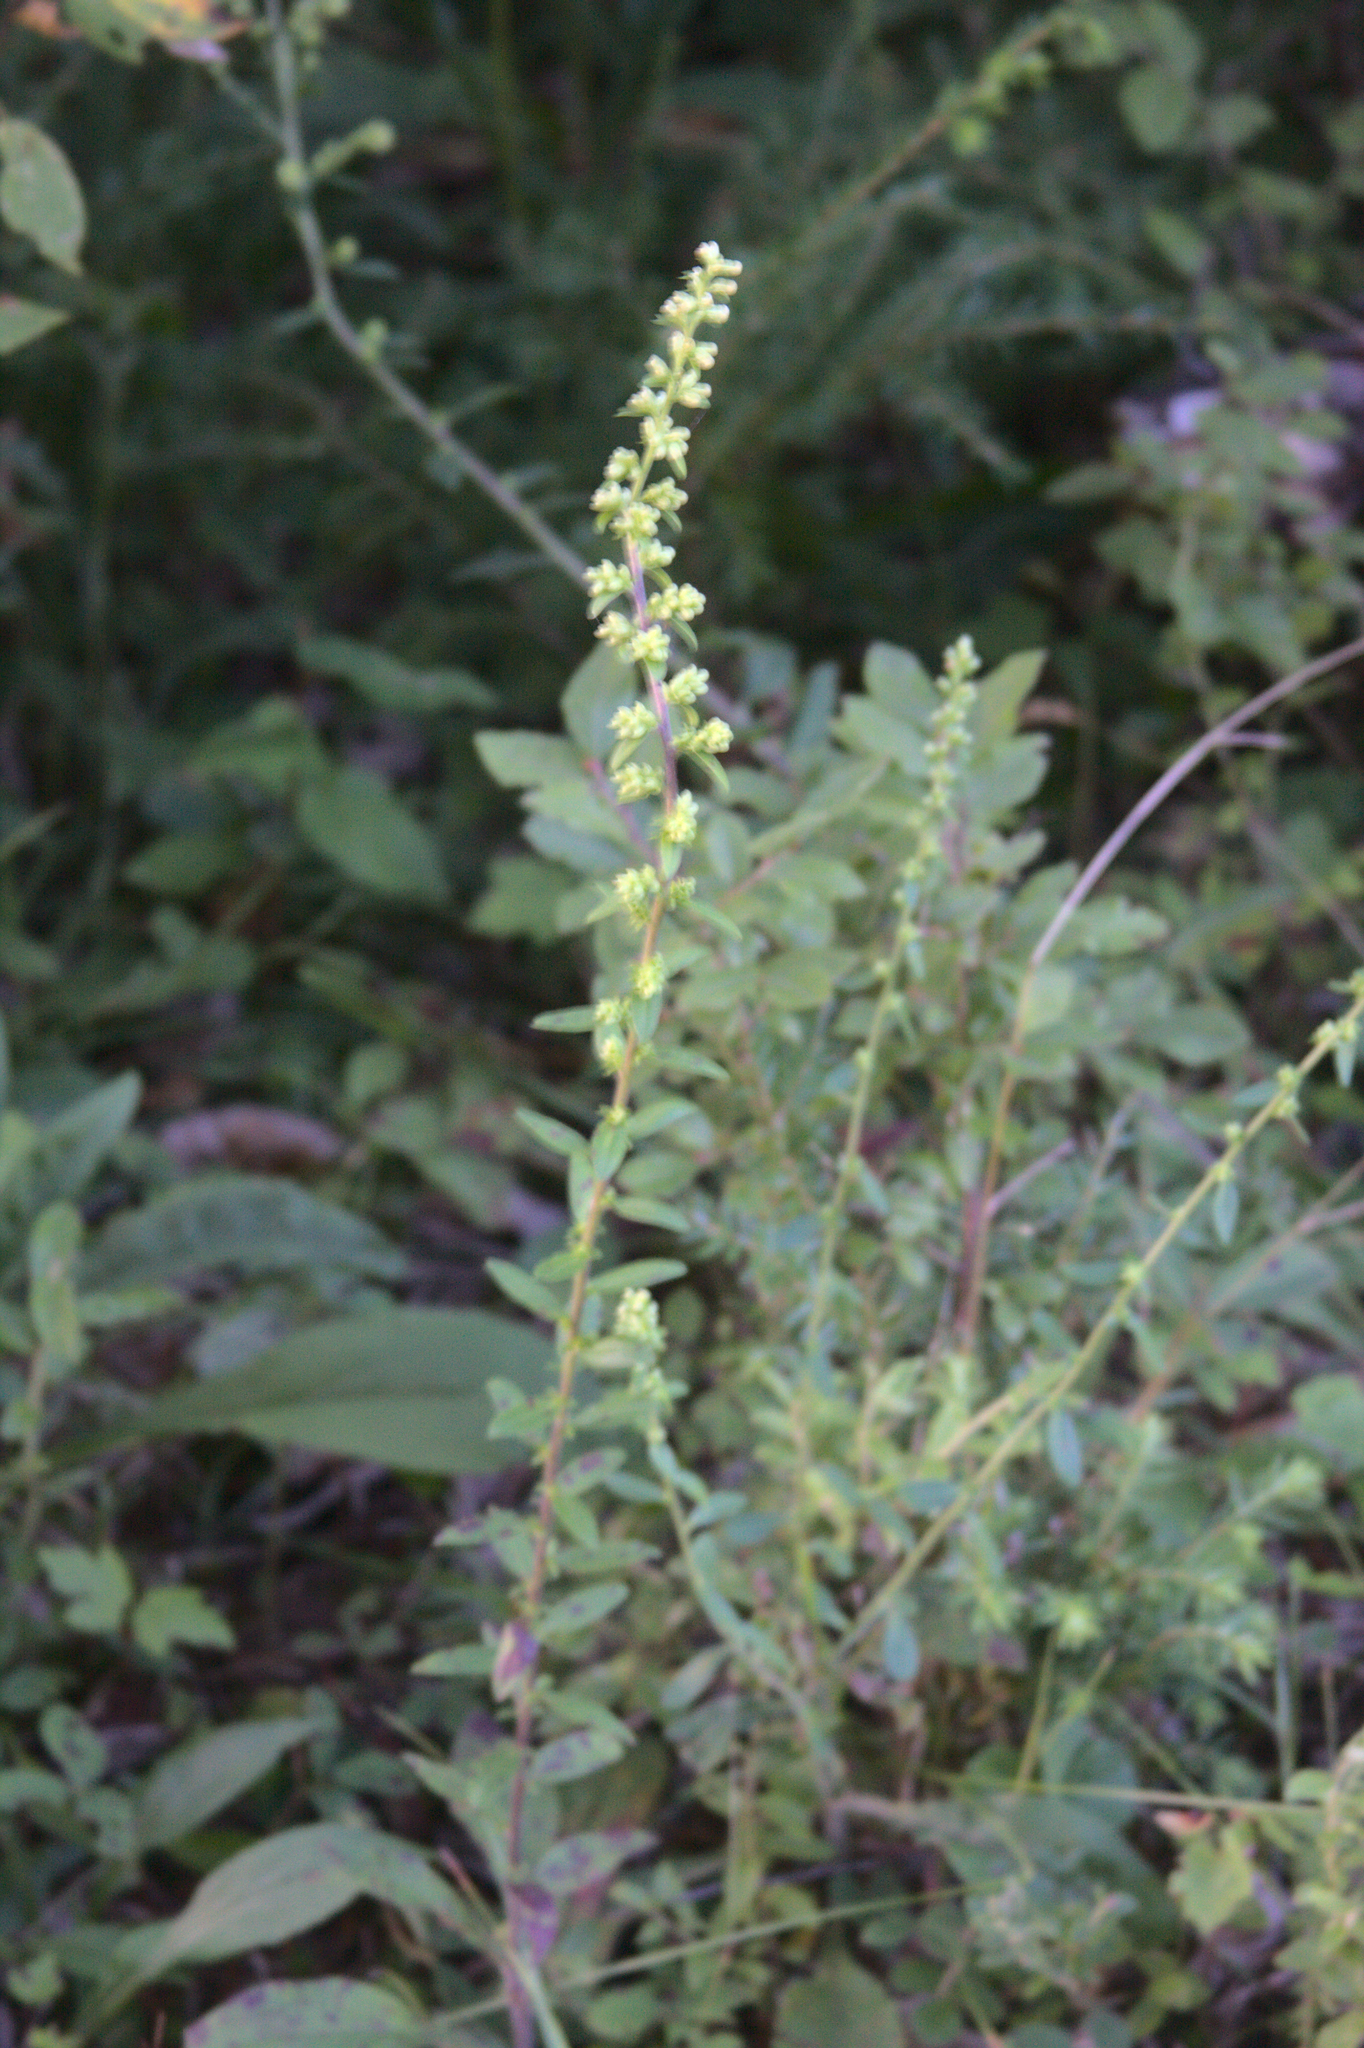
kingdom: Plantae
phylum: Tracheophyta
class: Magnoliopsida
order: Asterales
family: Asteraceae
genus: Solidago
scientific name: Solidago bicolor
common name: Silverrod
